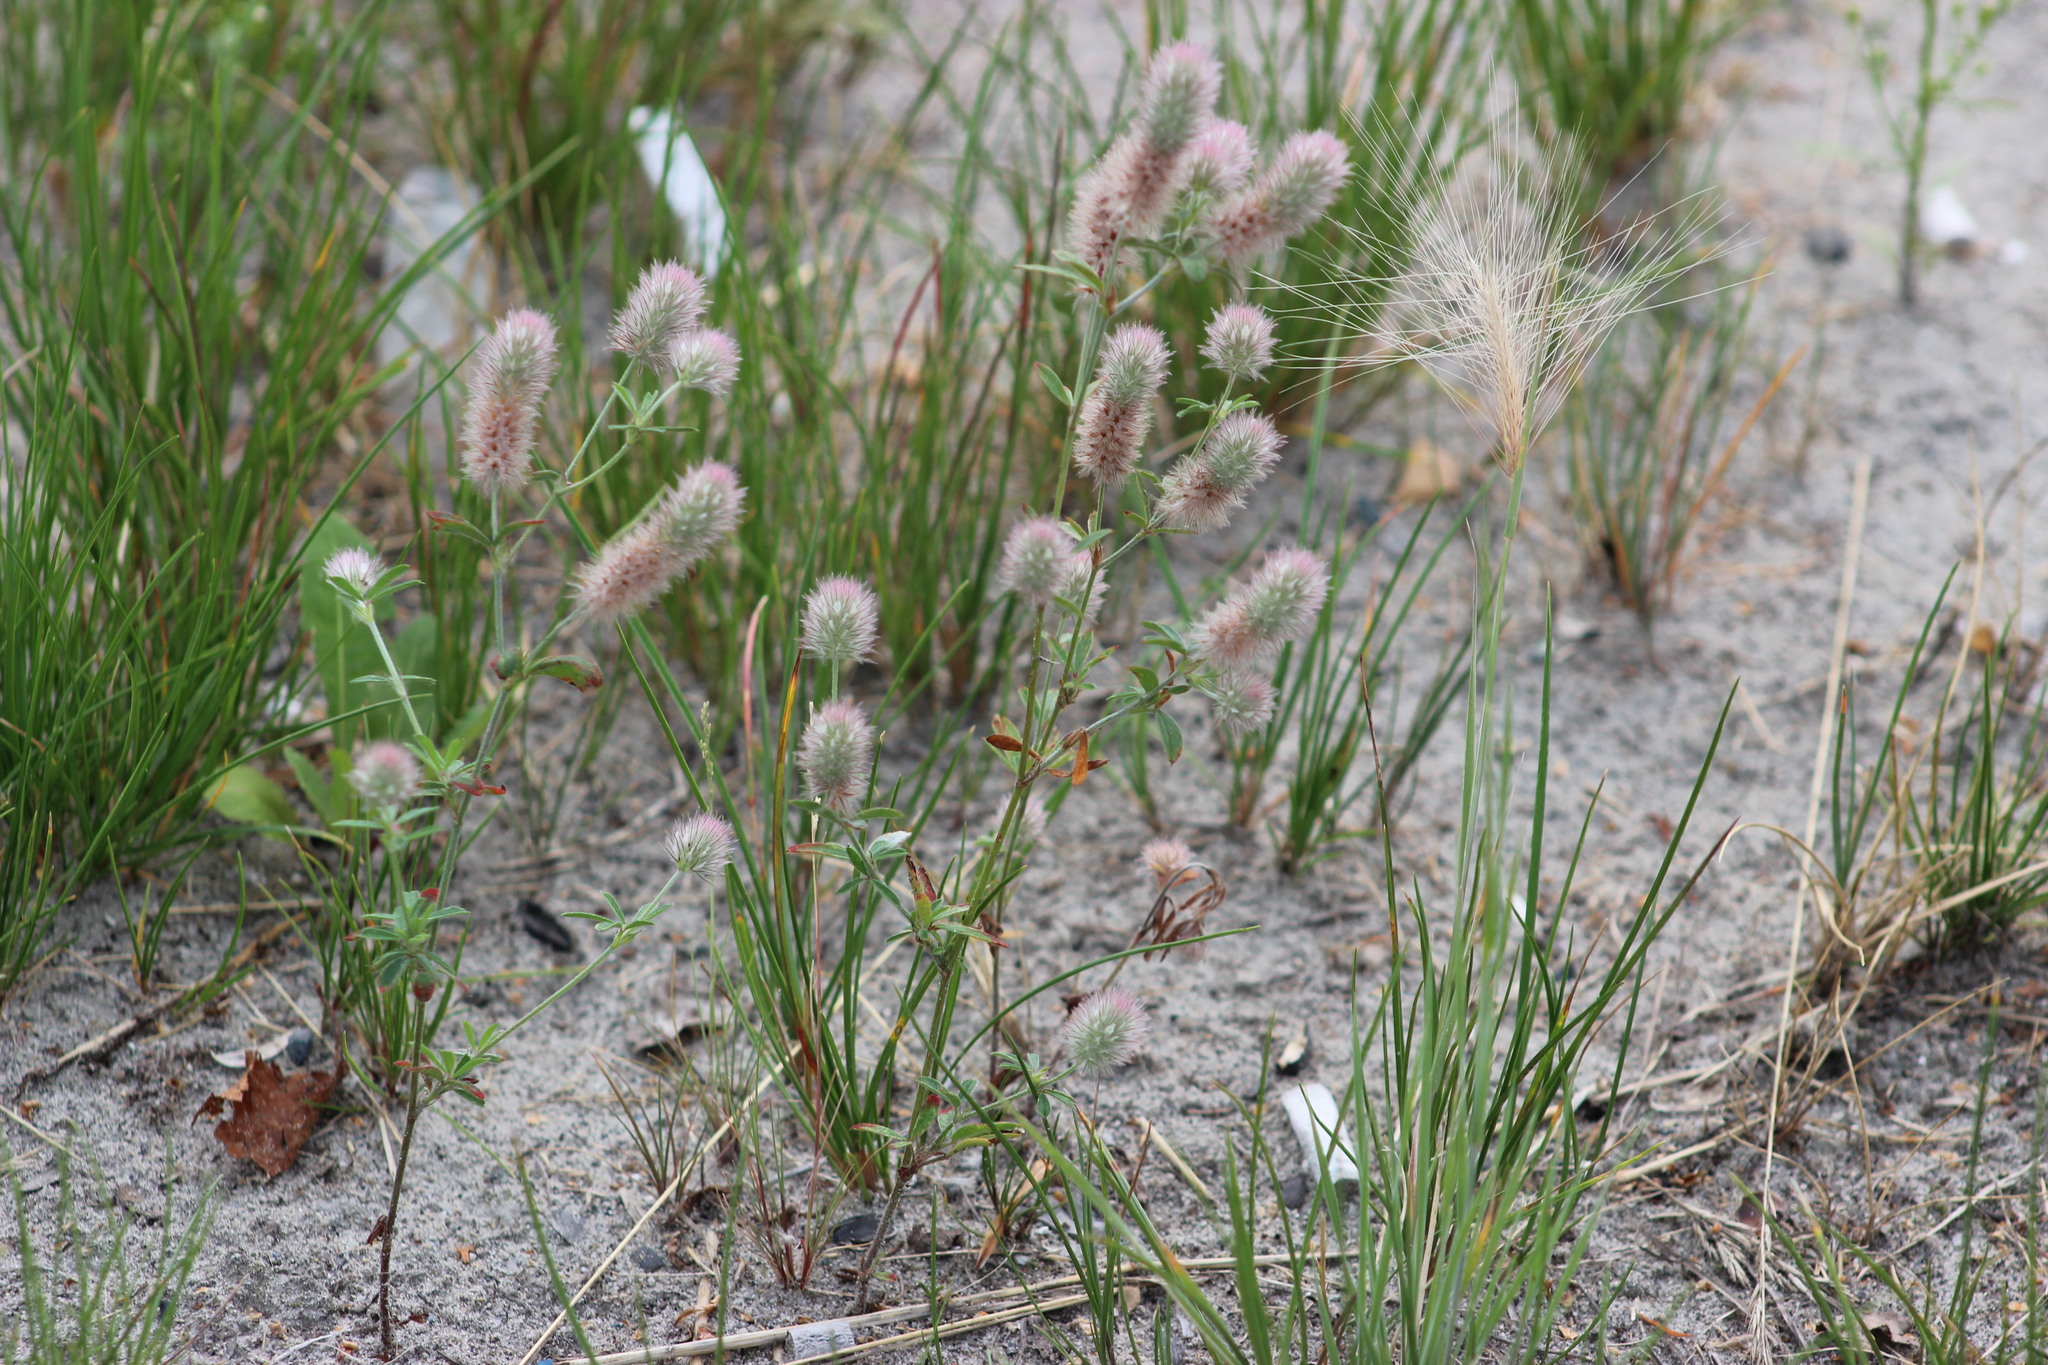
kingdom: Plantae
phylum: Tracheophyta
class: Magnoliopsida
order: Fabales
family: Fabaceae
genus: Trifolium
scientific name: Trifolium arvense
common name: Hare's-foot clover
